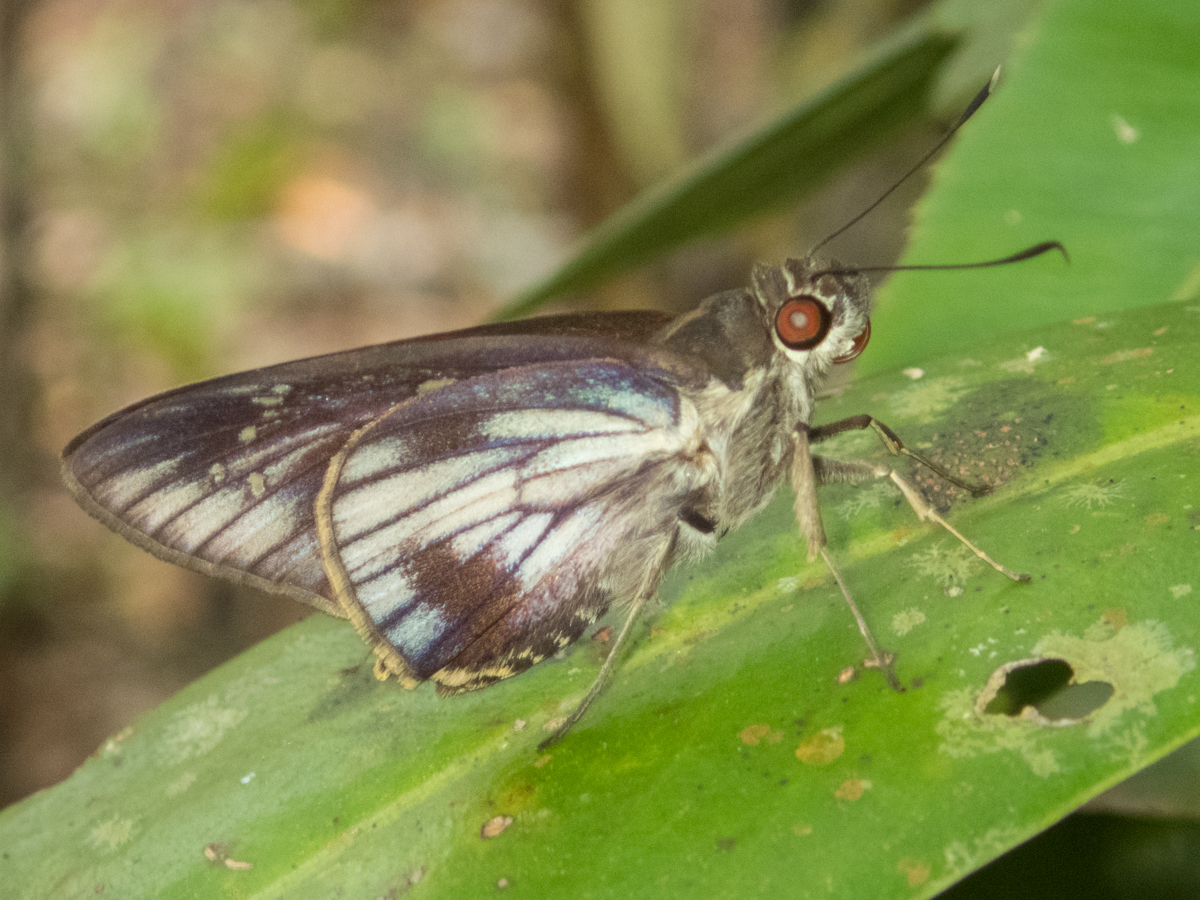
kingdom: Animalia
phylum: Arthropoda
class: Insecta
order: Lepidoptera
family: Hesperiidae
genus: Unkana
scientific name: Unkana ambasa
